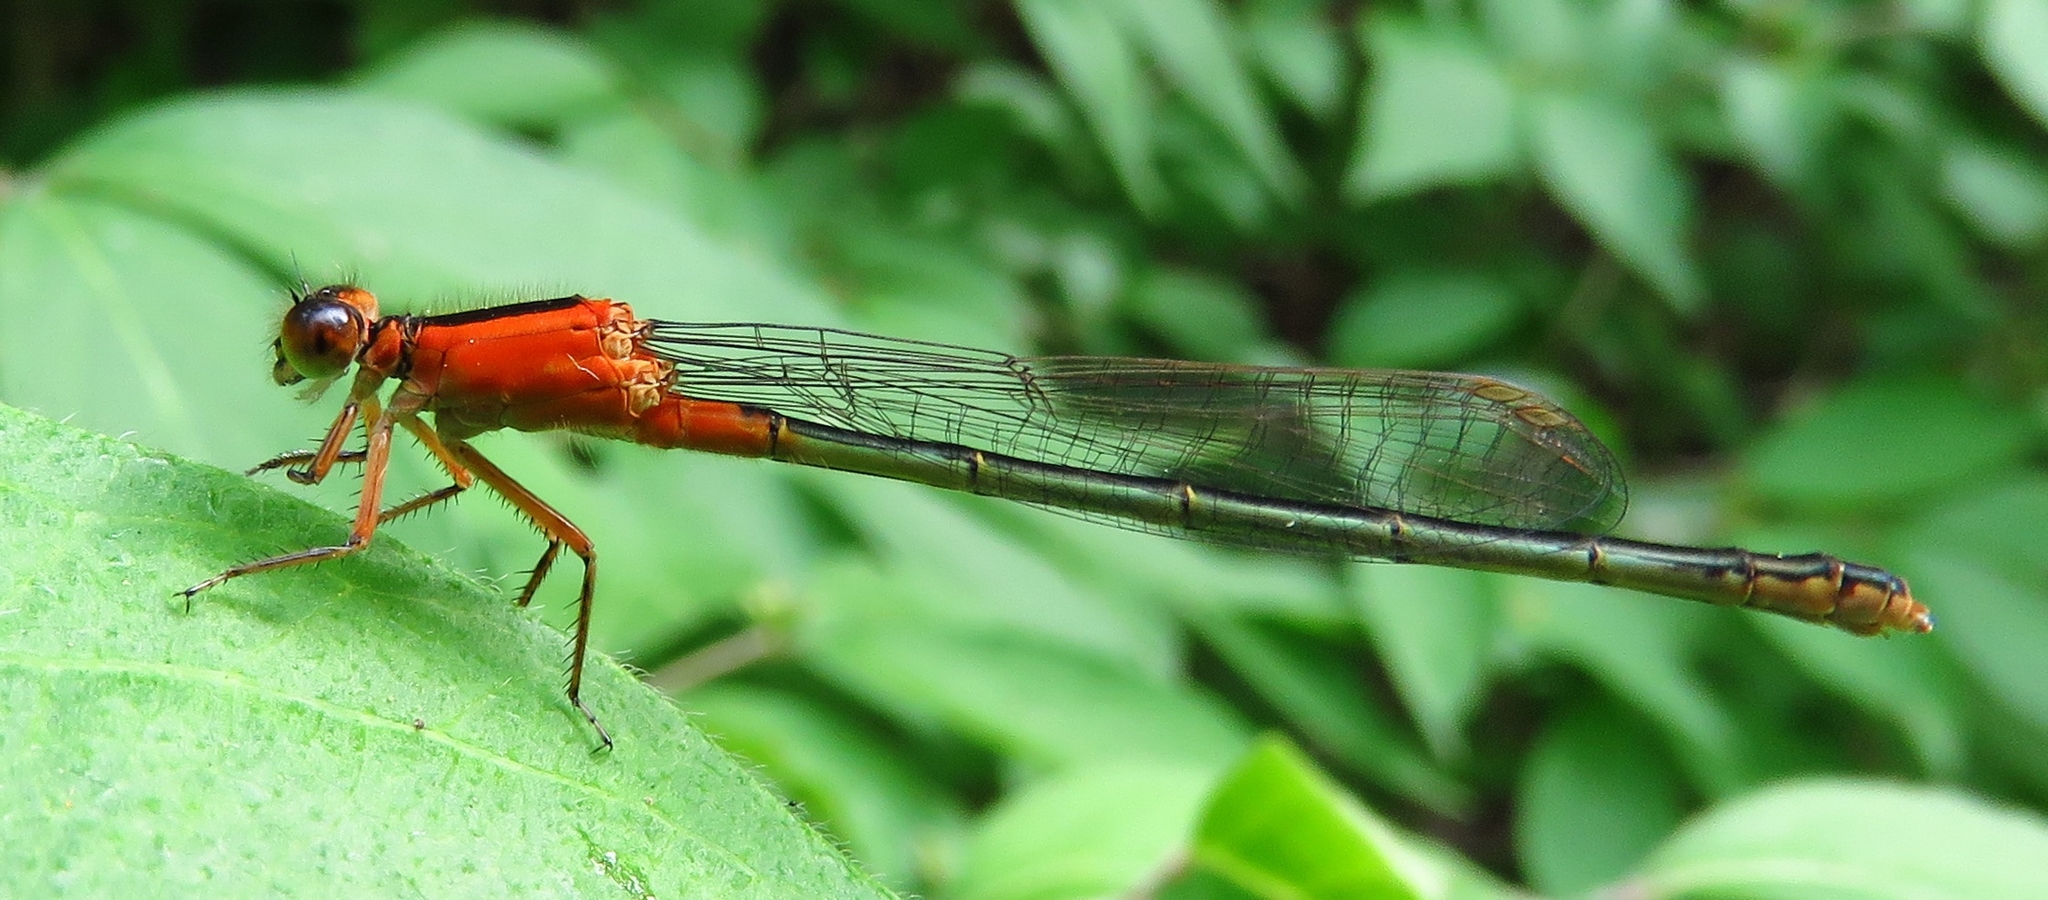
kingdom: Animalia
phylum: Arthropoda
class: Insecta
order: Odonata
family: Coenagrionidae
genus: Ischnura
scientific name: Ischnura ramburii
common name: Rambur's forktail
